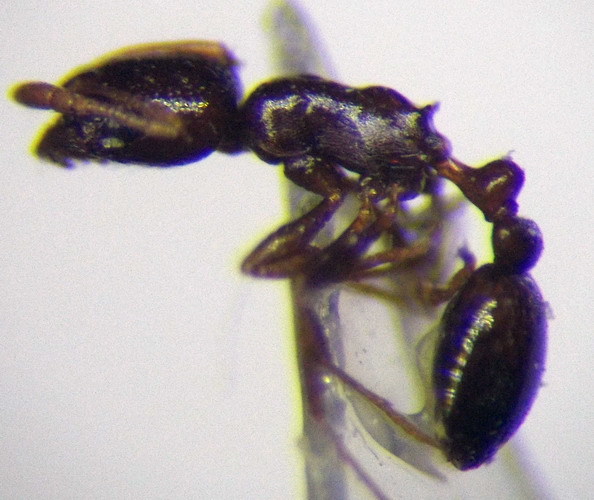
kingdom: Animalia
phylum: Arthropoda
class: Insecta
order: Hymenoptera
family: Formicidae
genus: Cardiocondyla
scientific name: Cardiocondyla ulianini
